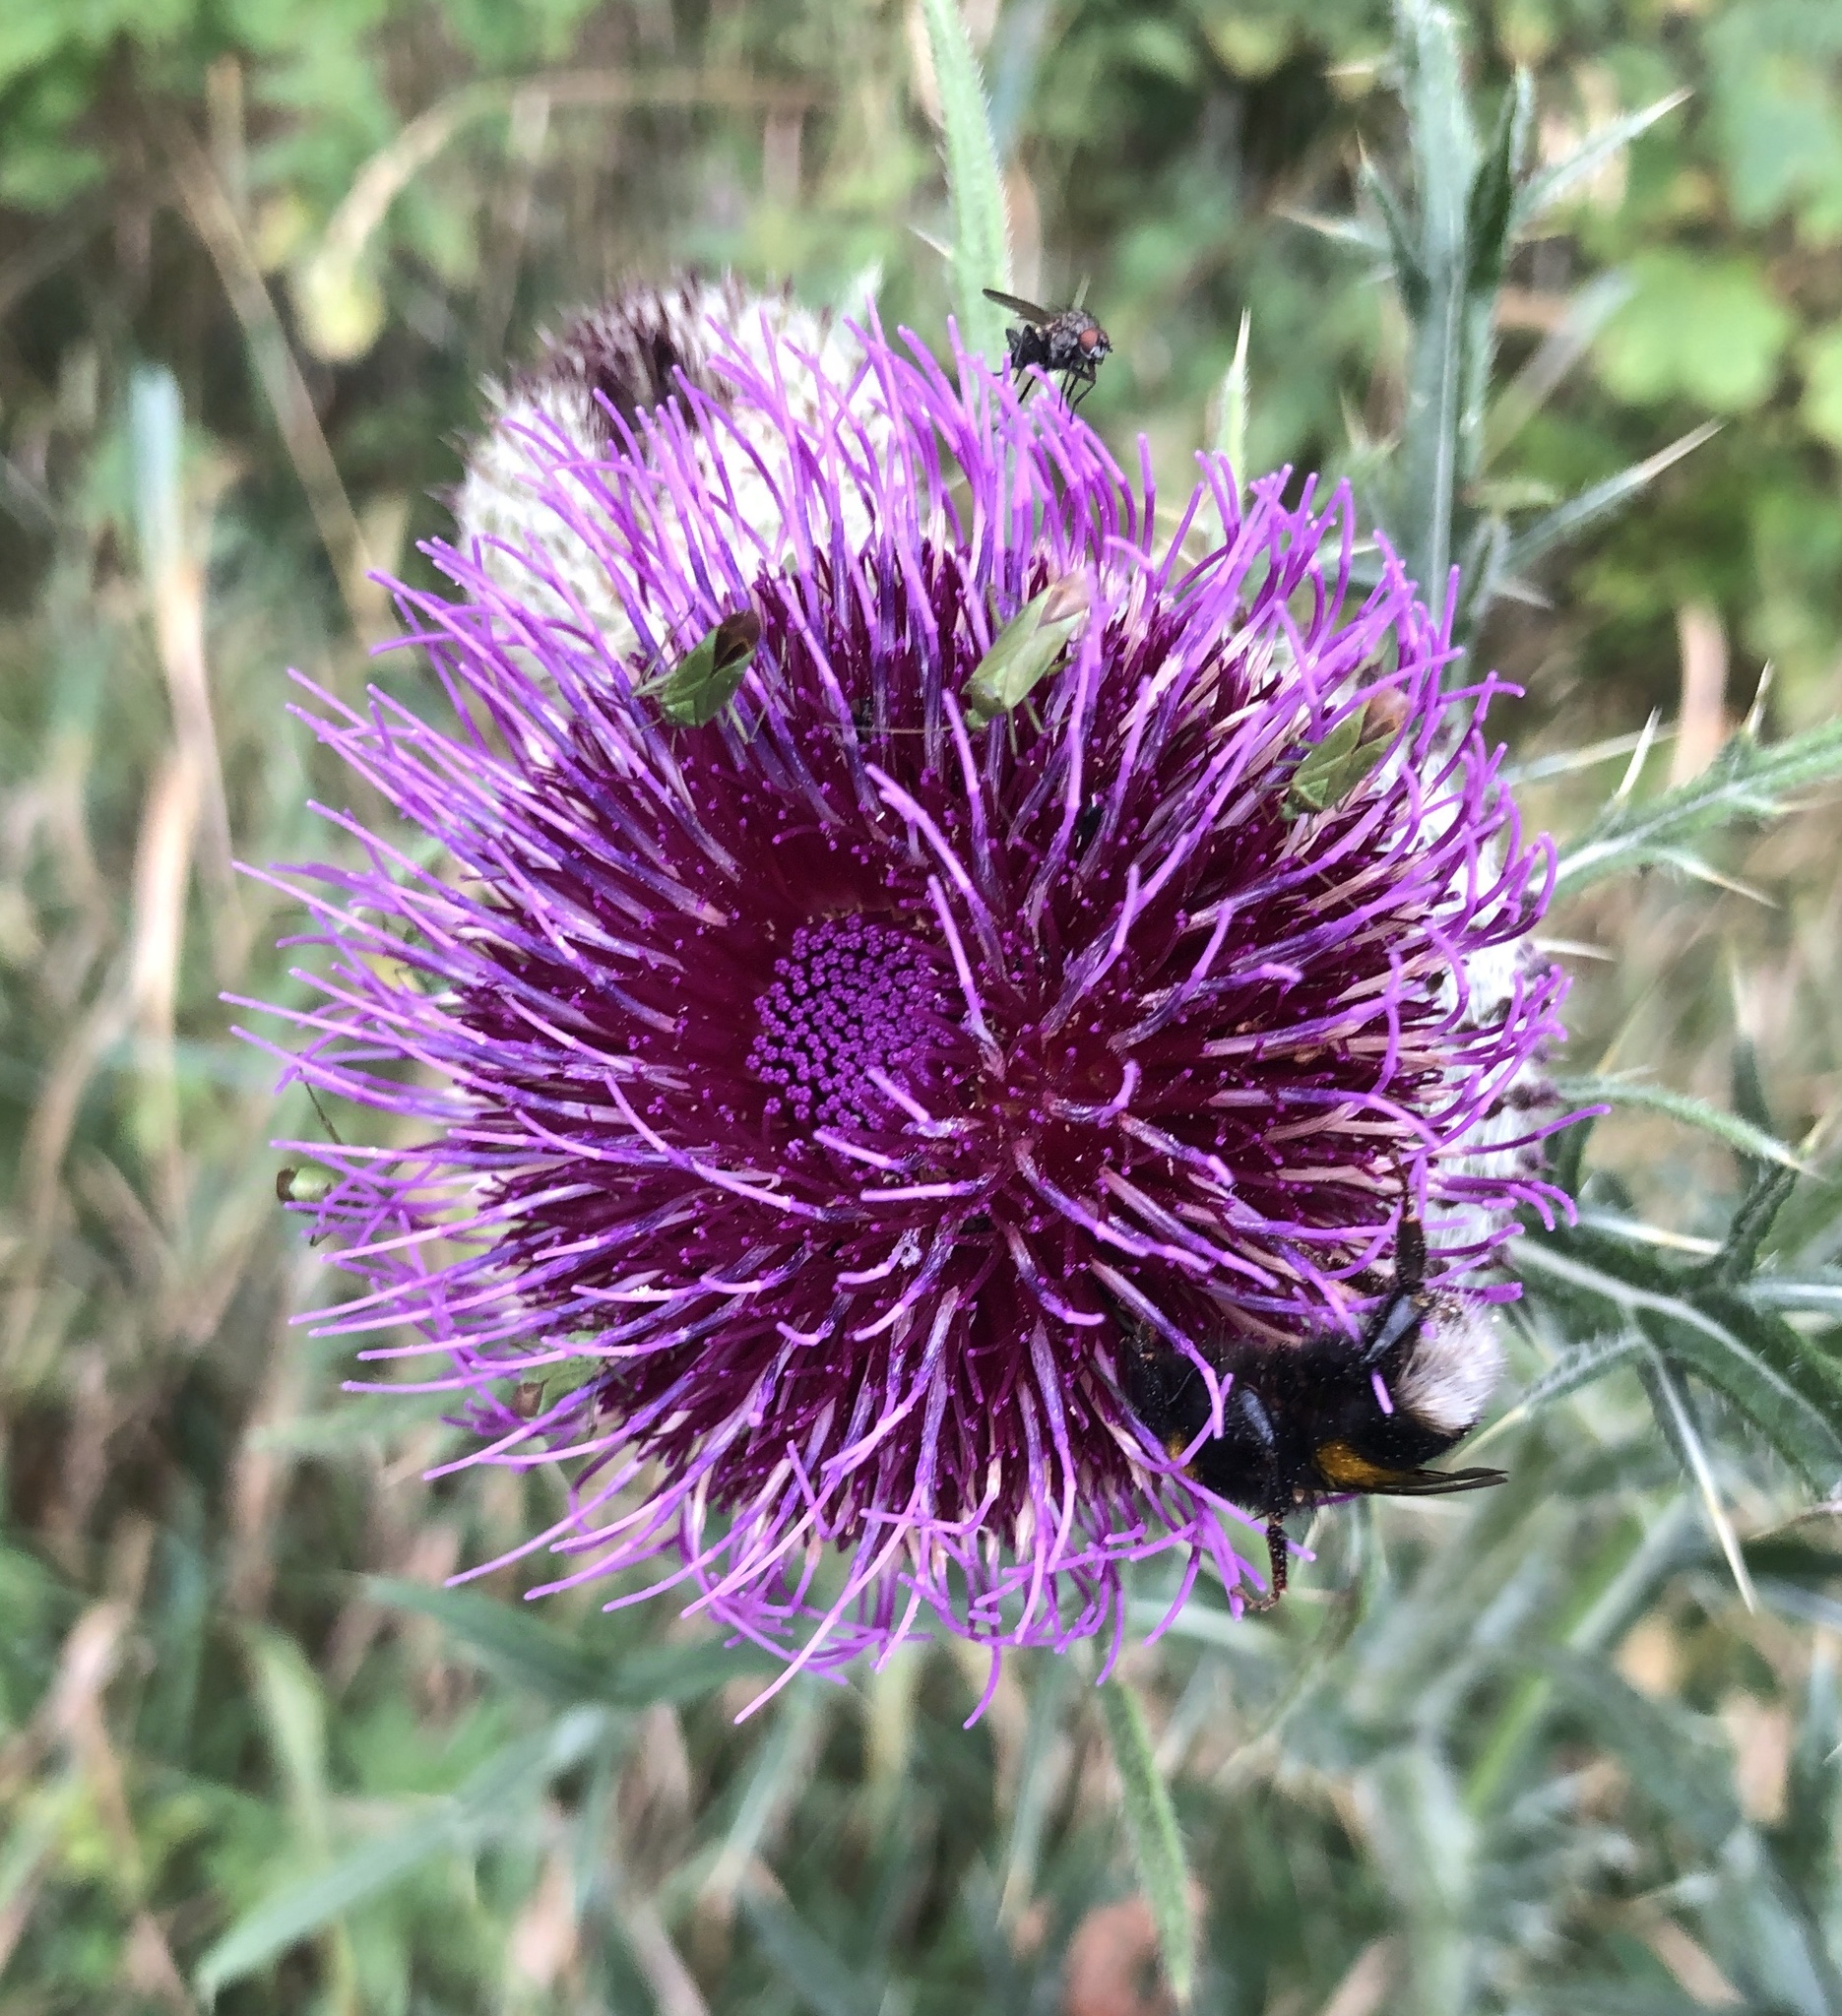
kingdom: Plantae
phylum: Tracheophyta
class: Magnoliopsida
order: Asterales
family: Asteraceae
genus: Lophiolepis
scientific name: Lophiolepis eriophora
